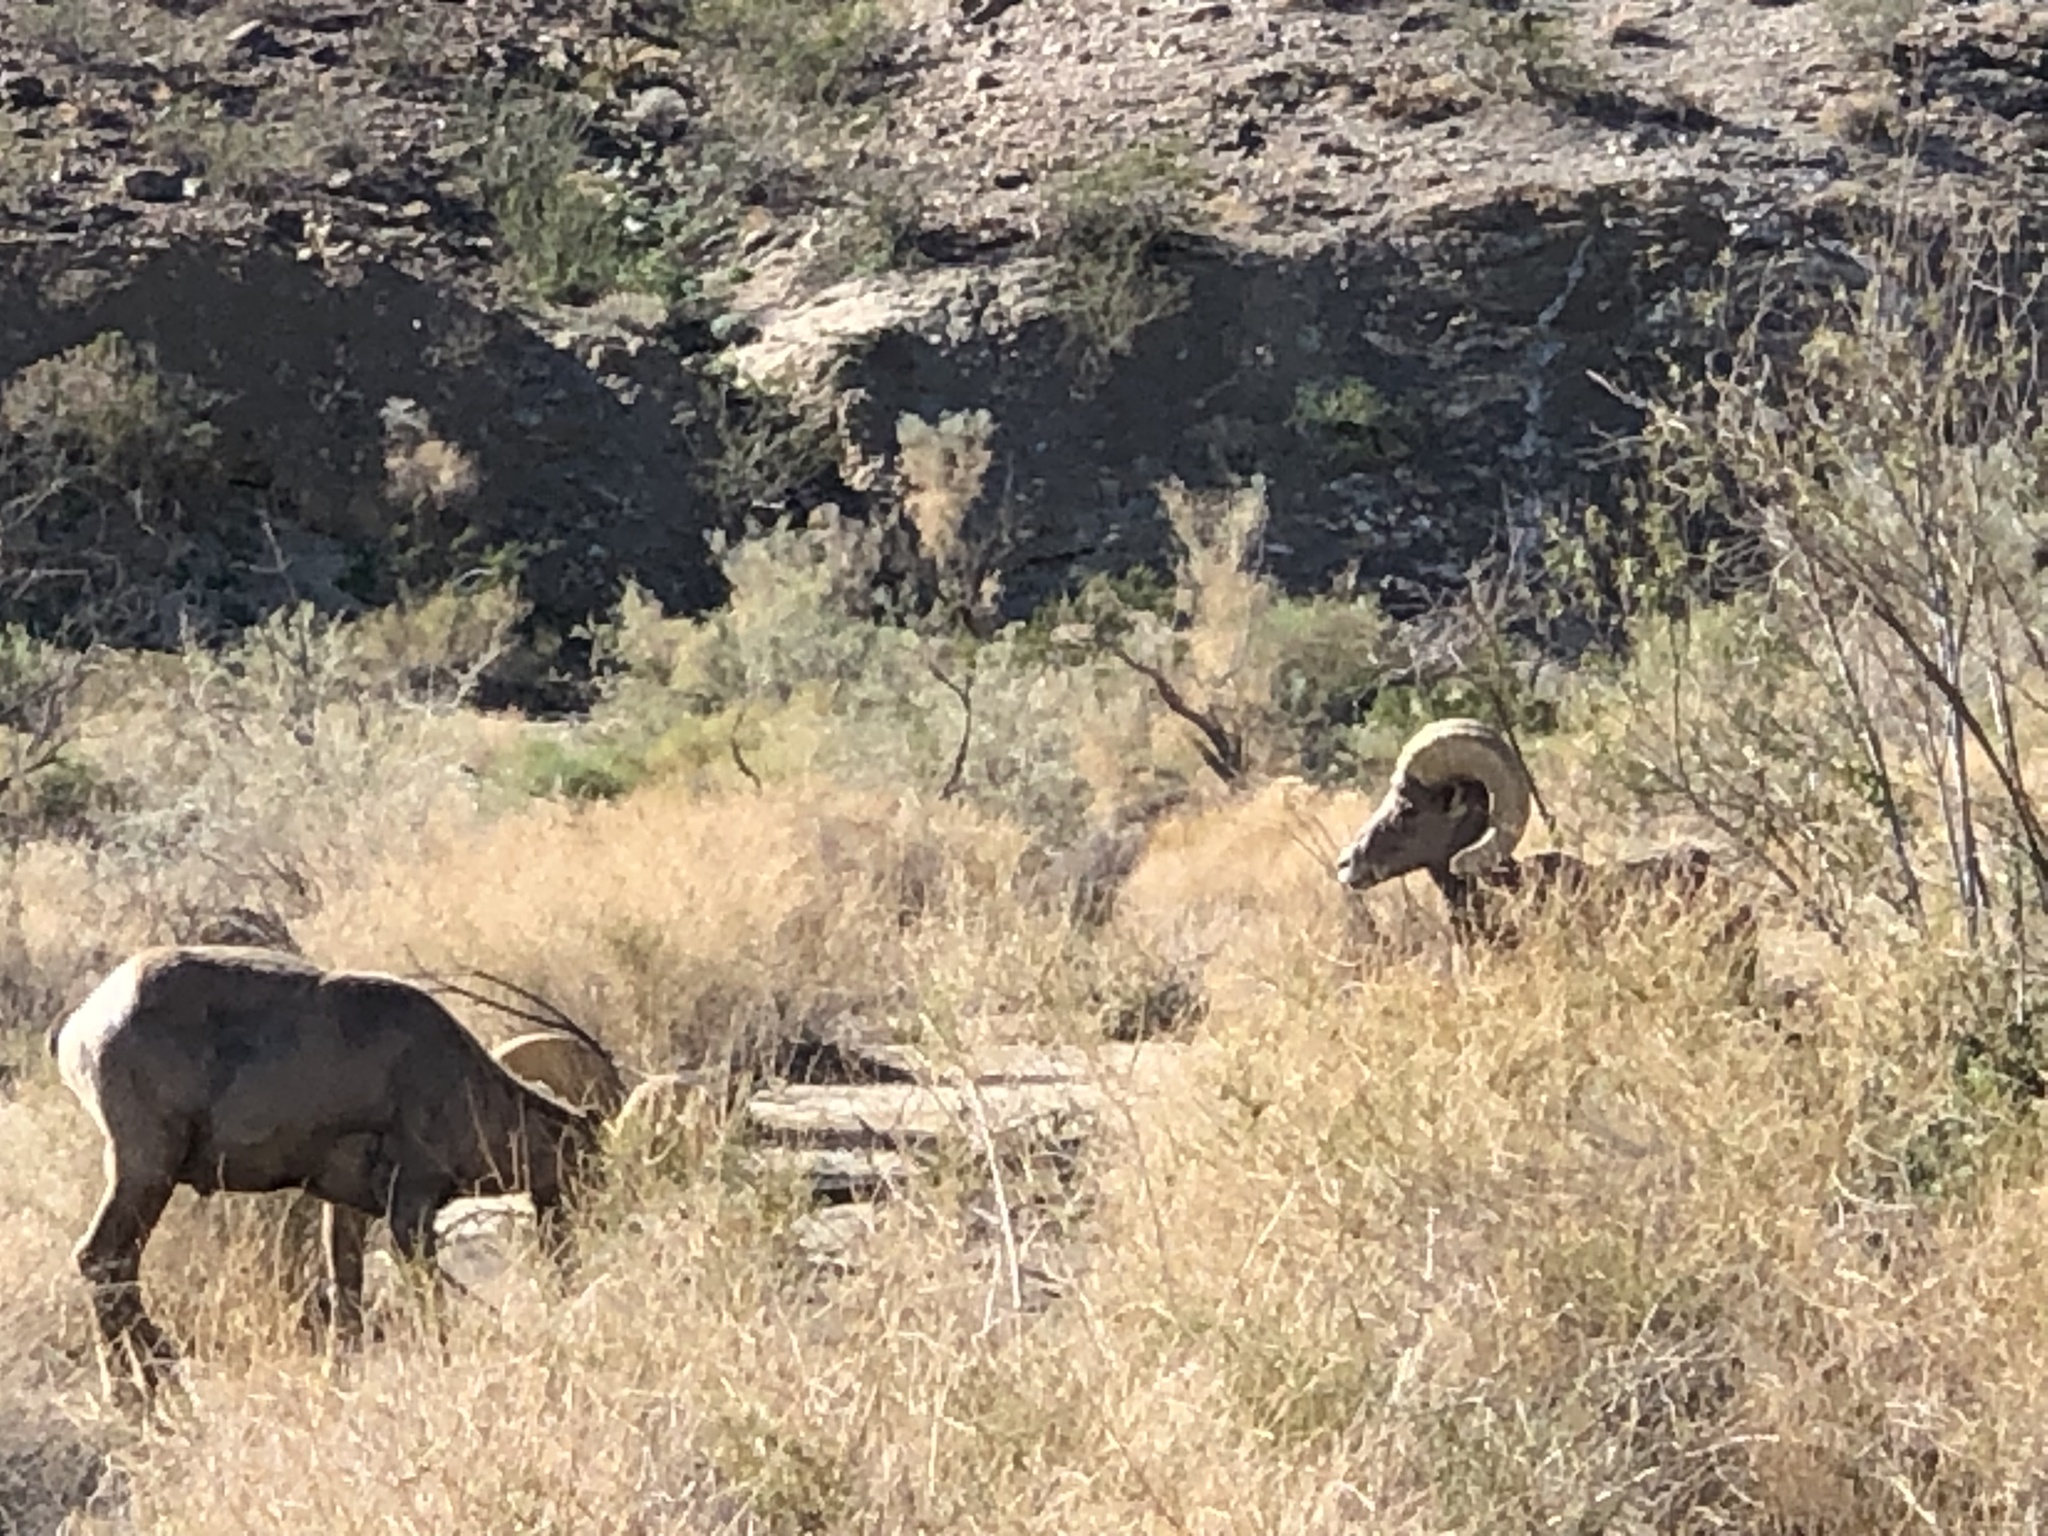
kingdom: Animalia
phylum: Chordata
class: Mammalia
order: Artiodactyla
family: Bovidae
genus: Ovis
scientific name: Ovis canadensis
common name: Bighorn sheep
